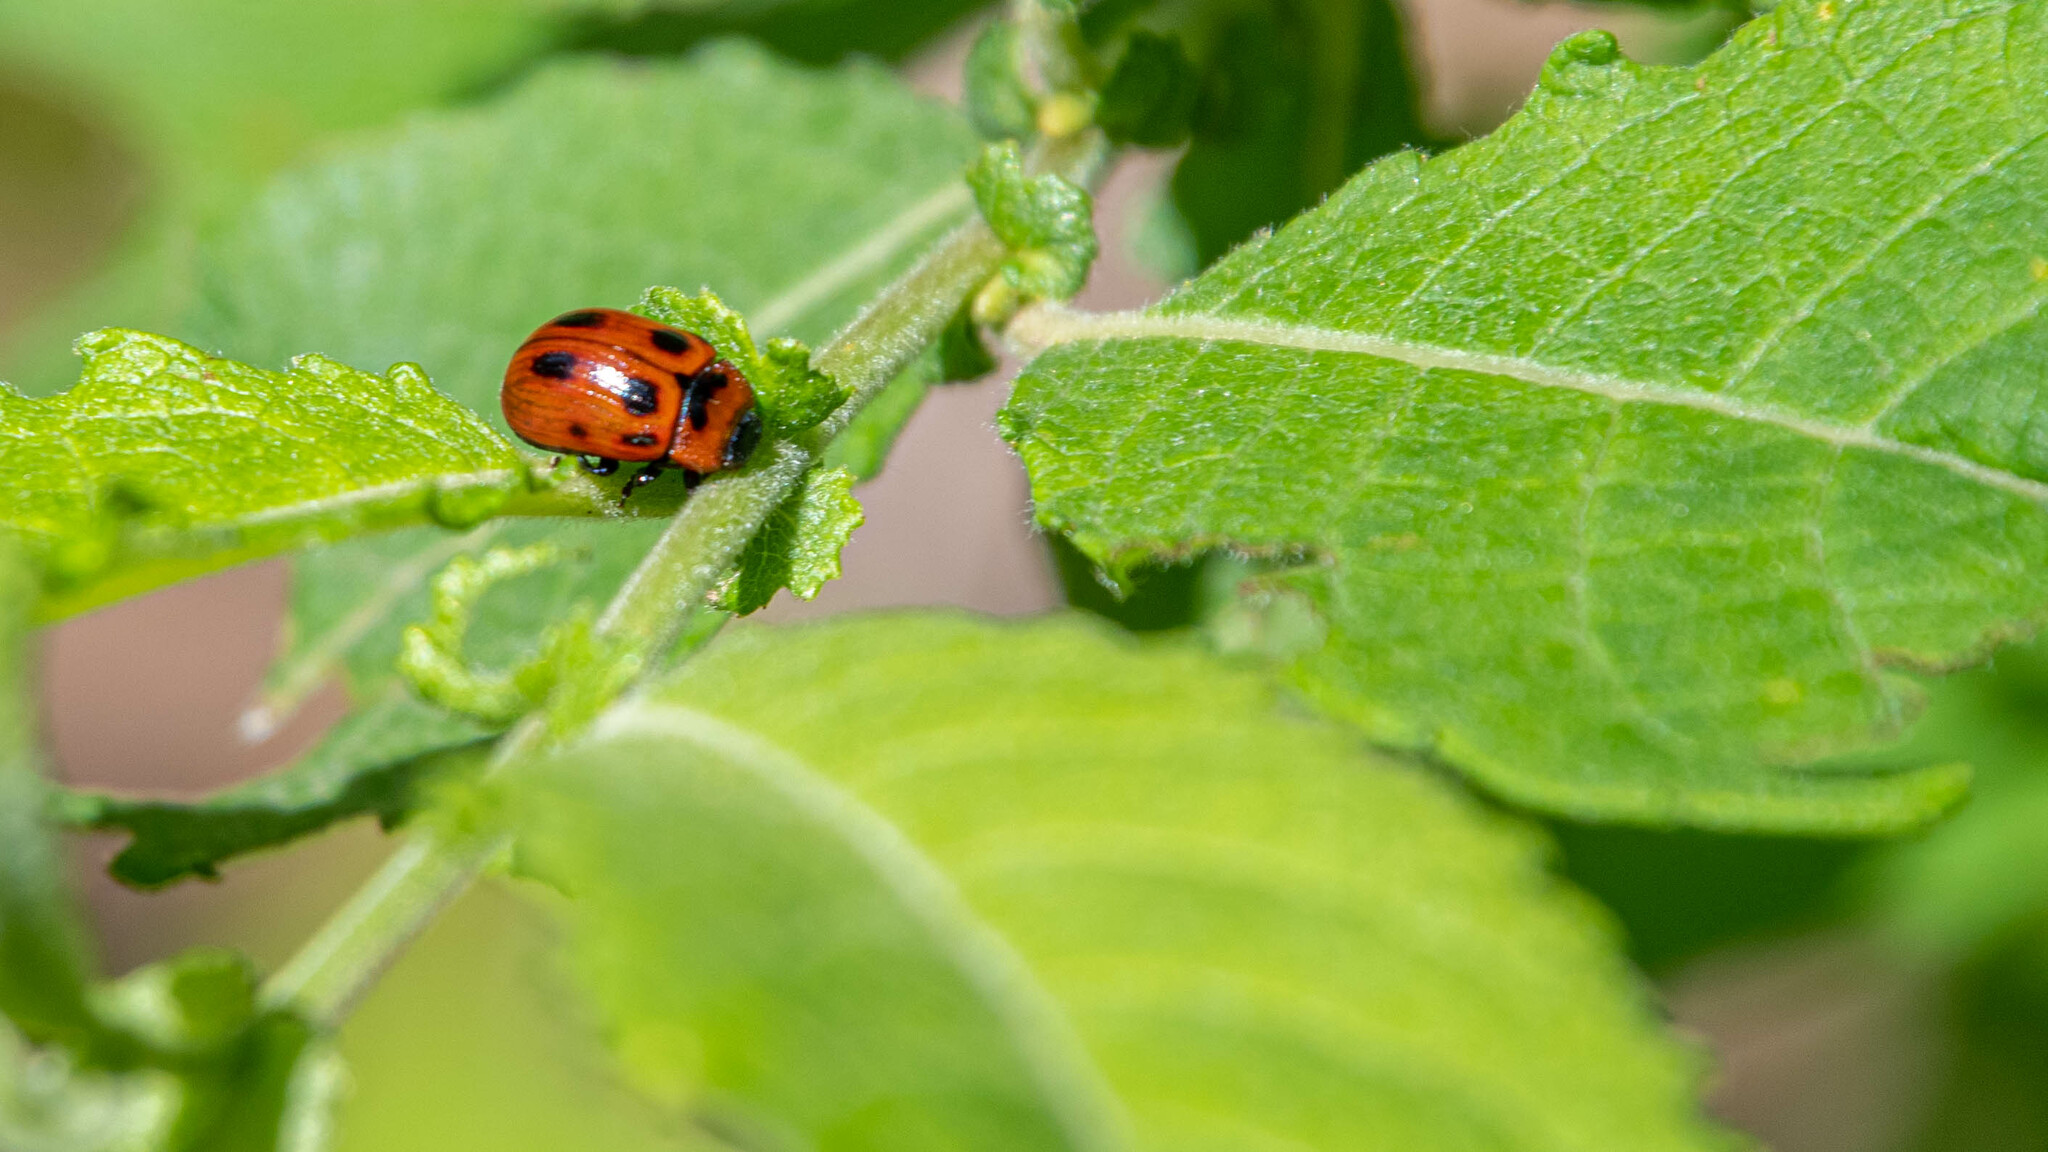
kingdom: Animalia
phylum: Arthropoda
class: Insecta
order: Coleoptera
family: Chrysomelidae
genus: Gonioctena
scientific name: Gonioctena viminalis
